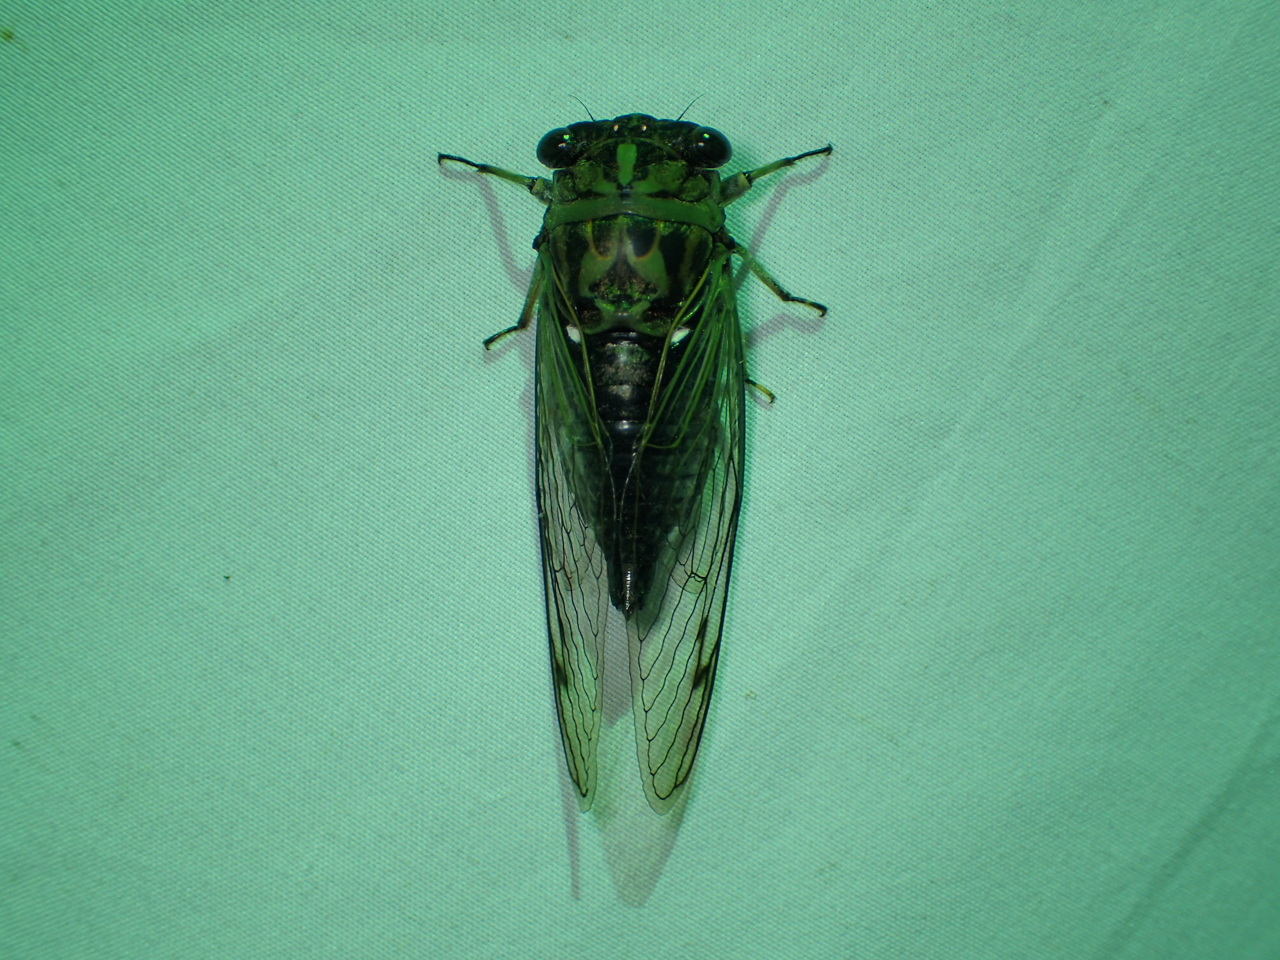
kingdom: Animalia
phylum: Arthropoda
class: Insecta
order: Hemiptera
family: Cicadidae
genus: Neotibicen
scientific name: Neotibicen pruinosus
